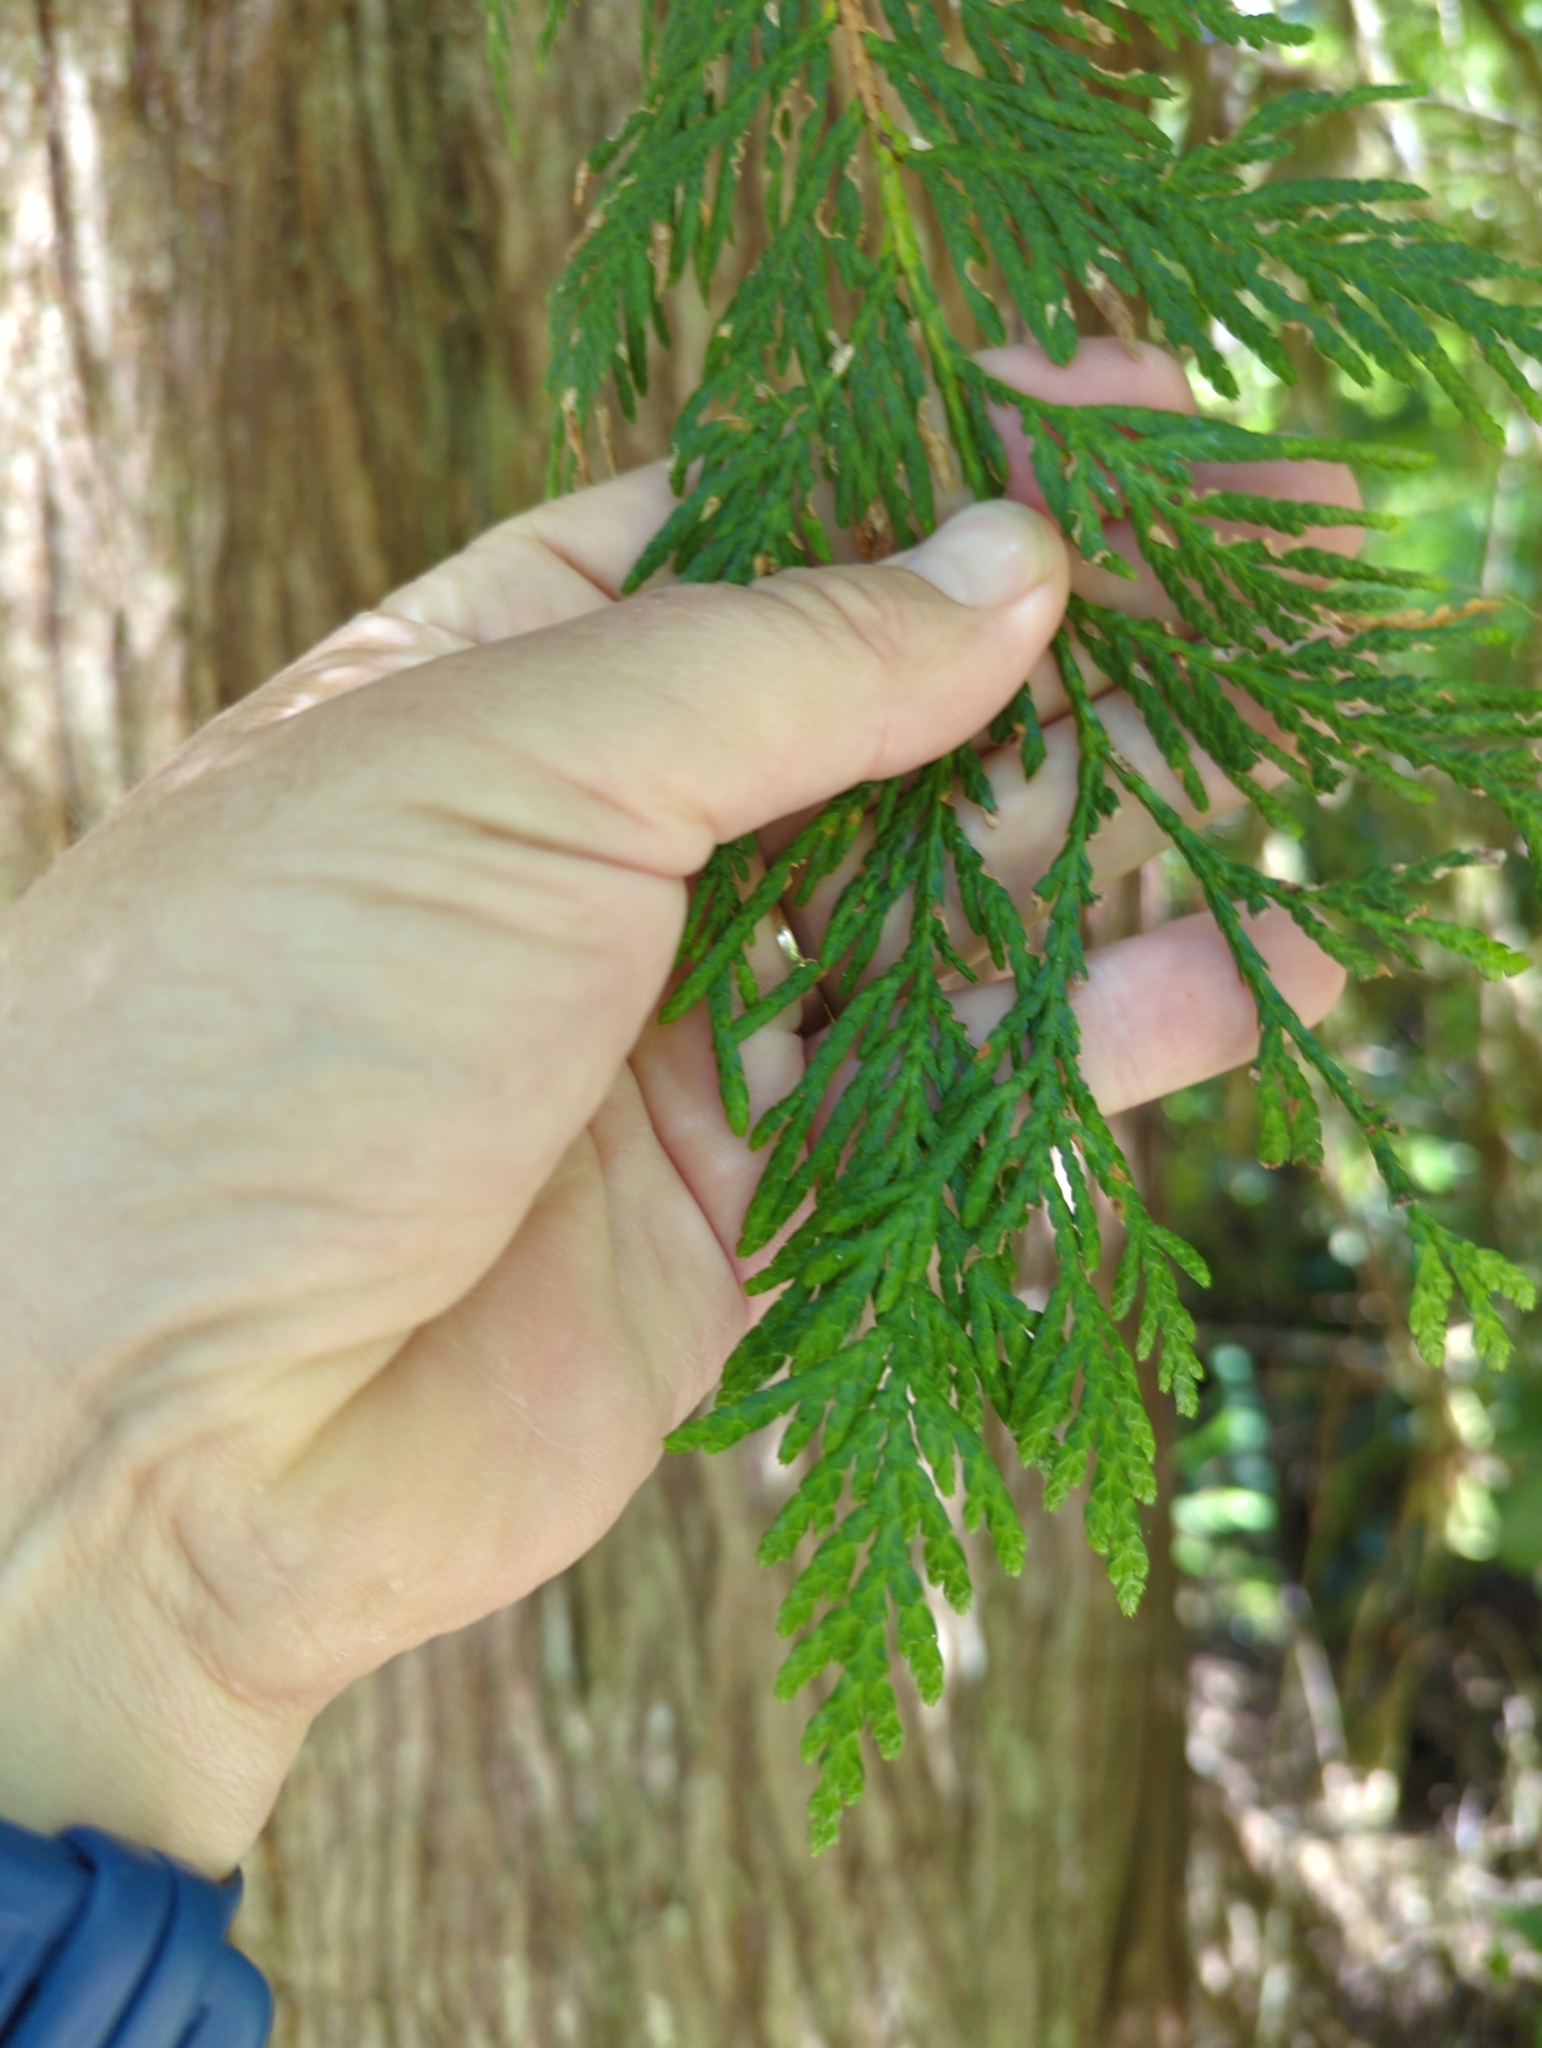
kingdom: Plantae
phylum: Tracheophyta
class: Pinopsida
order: Pinales
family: Cupressaceae
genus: Thuja
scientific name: Thuja plicata
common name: Western red-cedar
